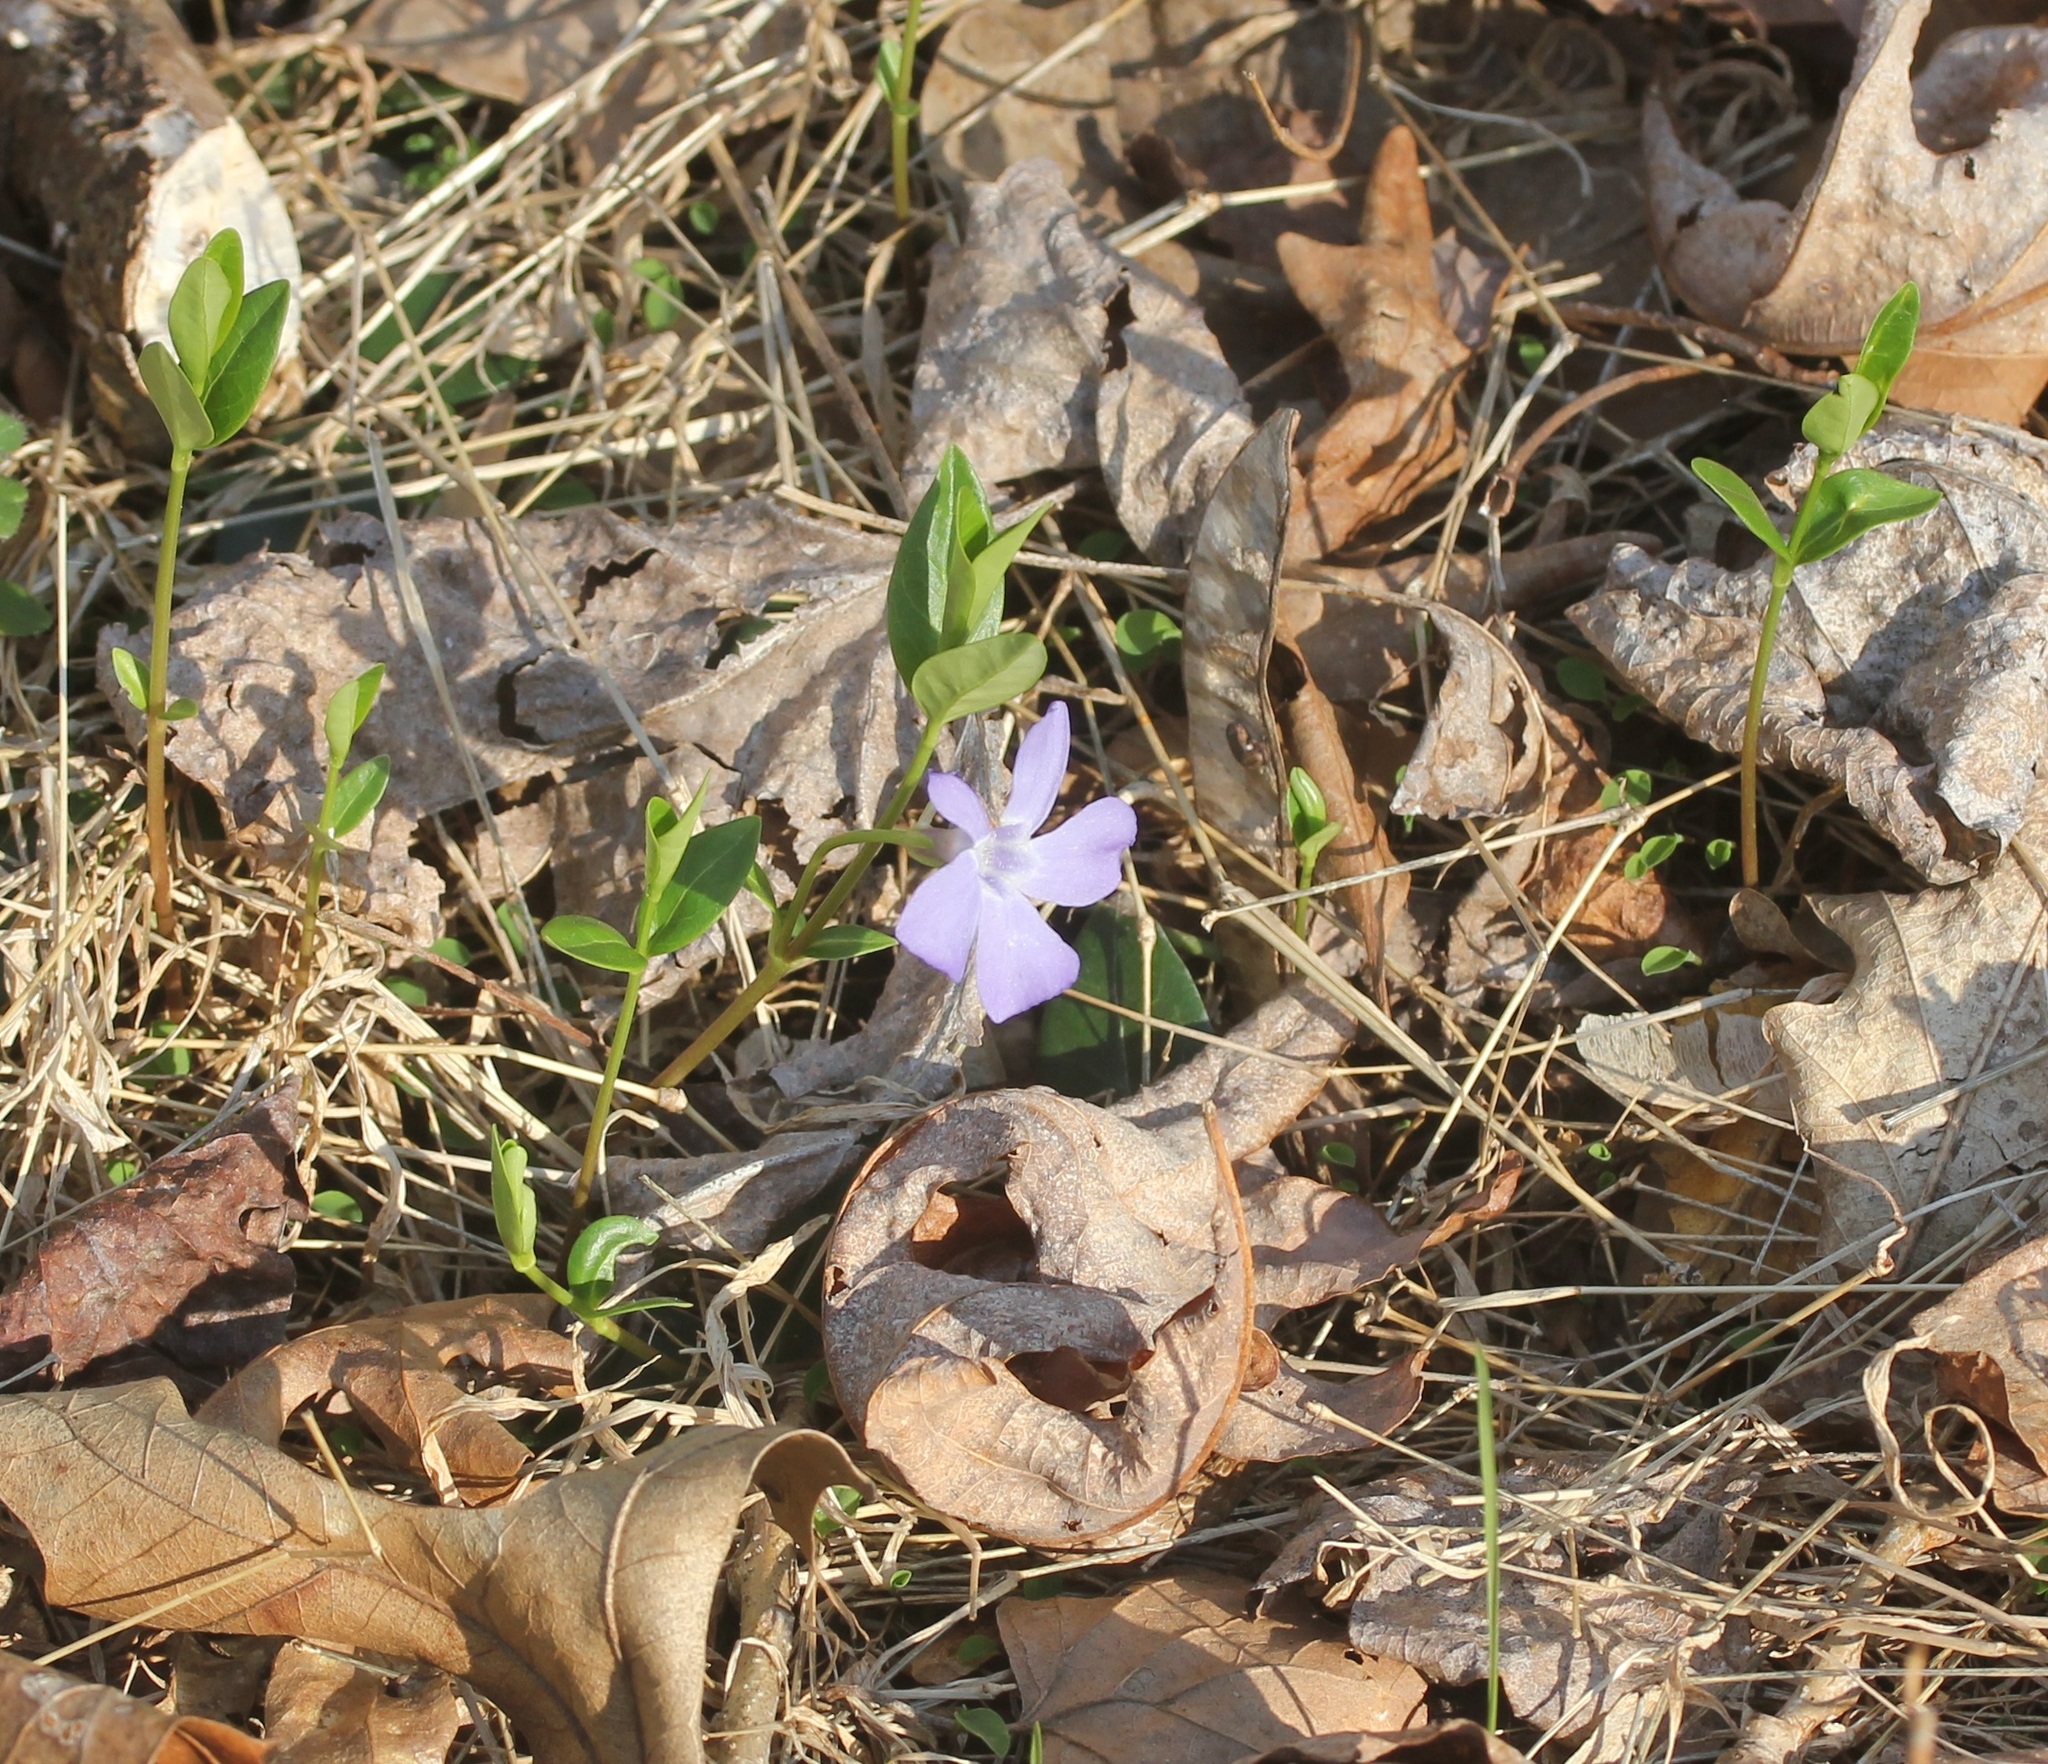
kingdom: Plantae
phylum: Tracheophyta
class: Magnoliopsida
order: Gentianales
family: Apocynaceae
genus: Vinca
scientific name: Vinca minor
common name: Lesser periwinkle
